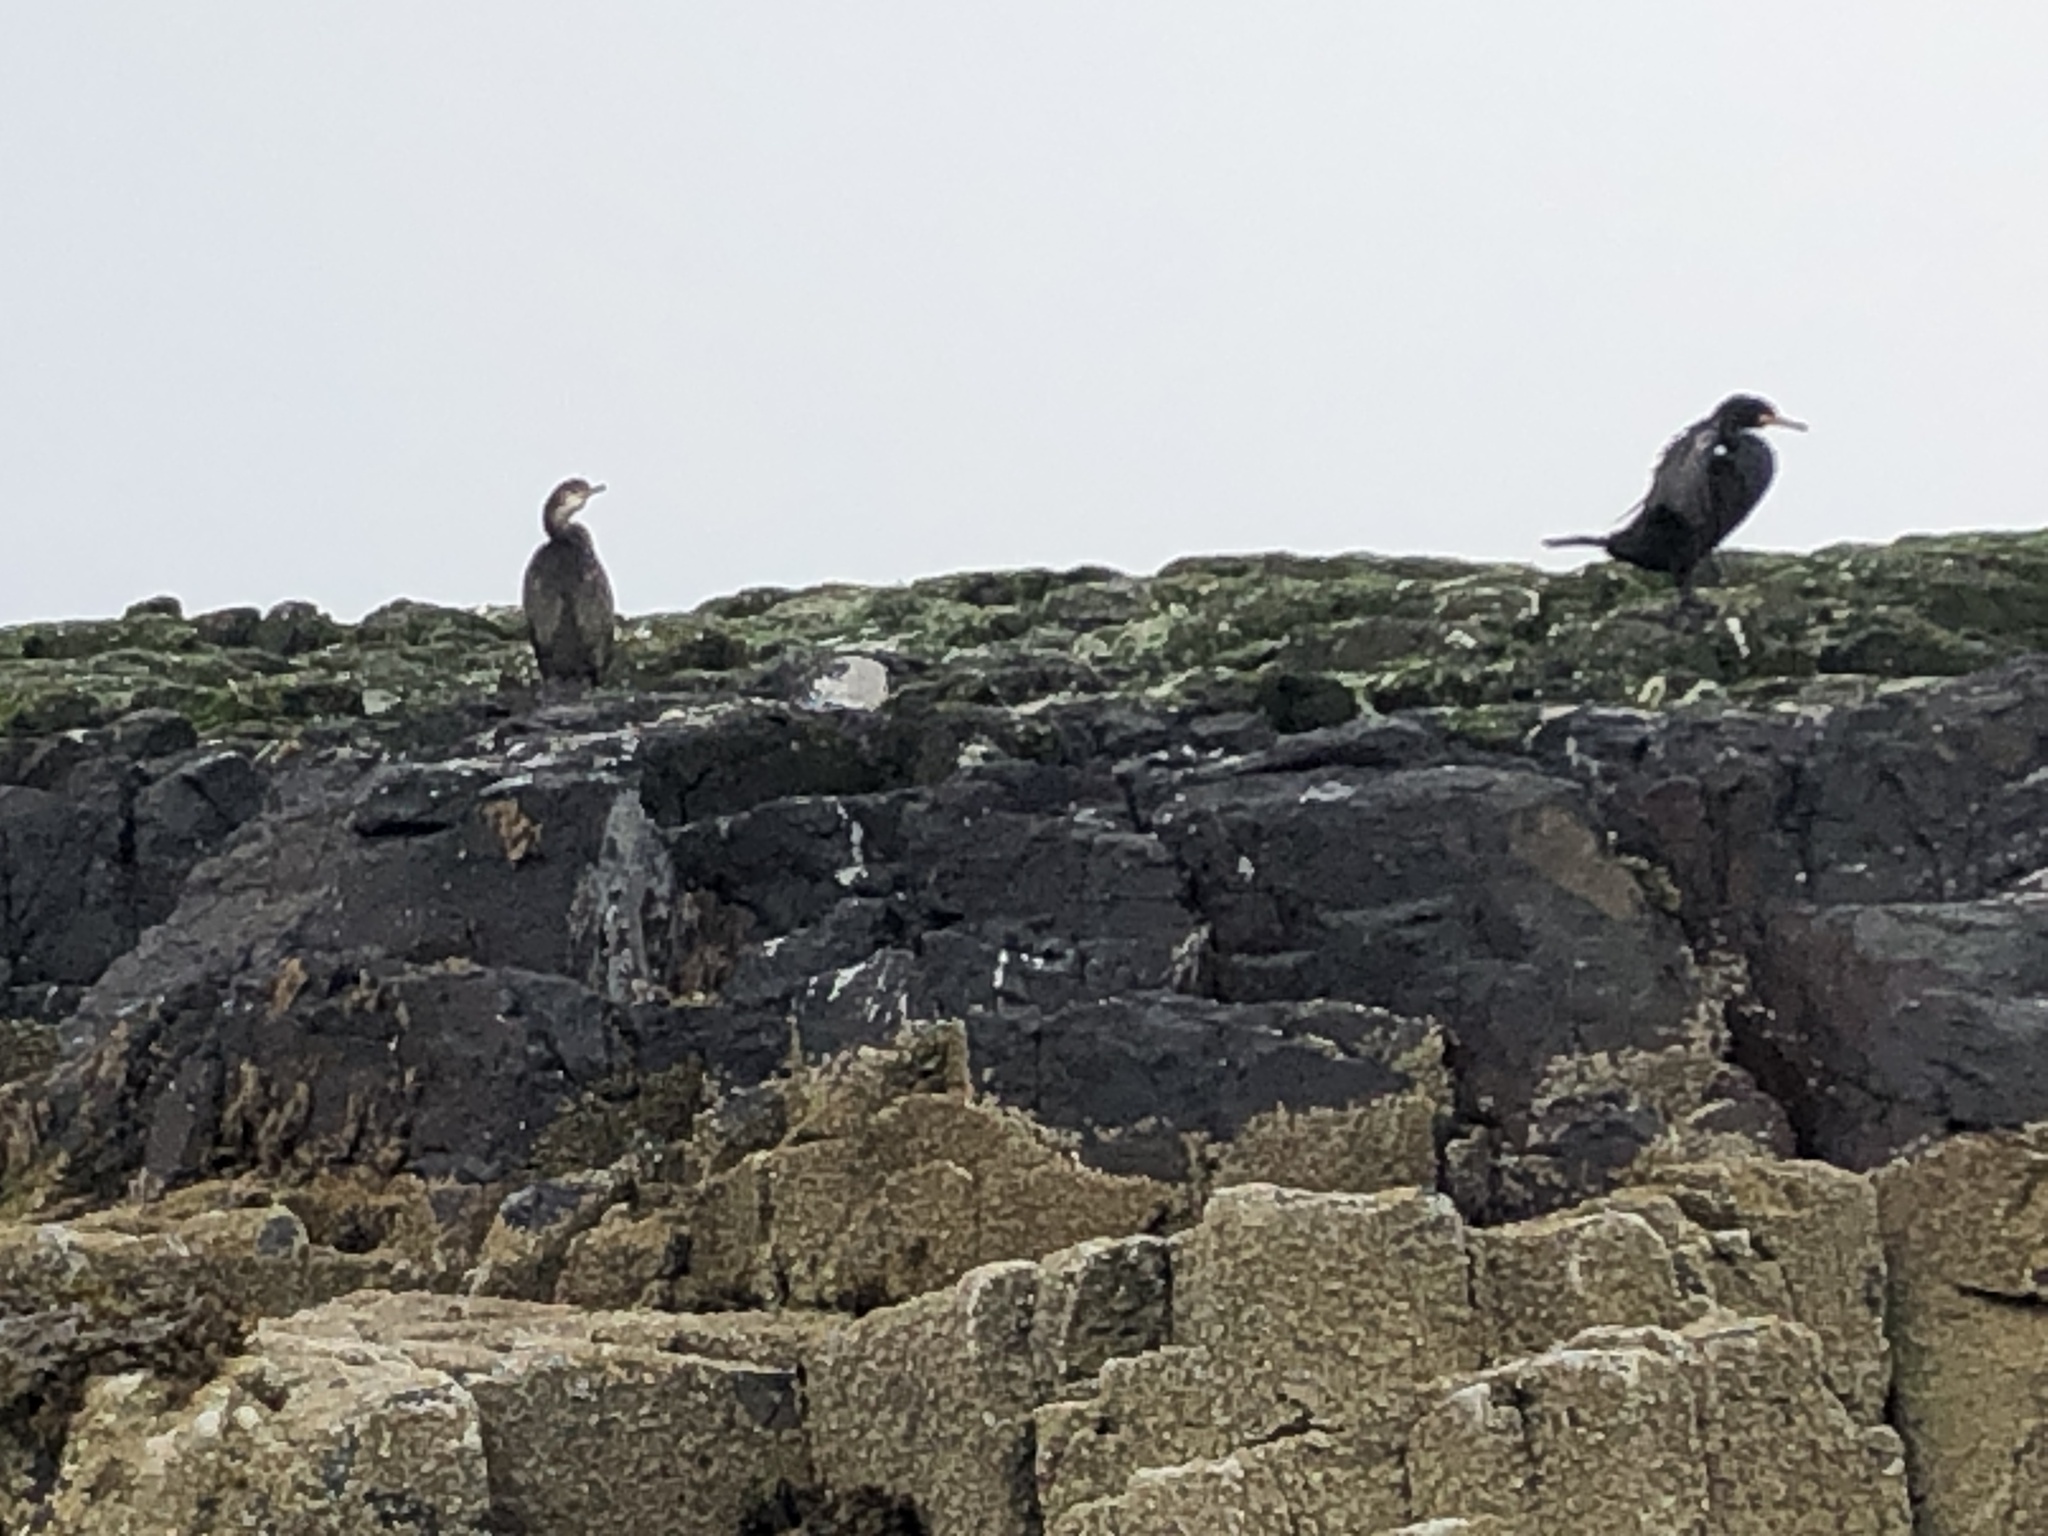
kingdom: Animalia
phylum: Chordata
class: Aves
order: Suliformes
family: Phalacrocoracidae
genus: Phalacrocorax
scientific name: Phalacrocorax aristotelis
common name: European shag
